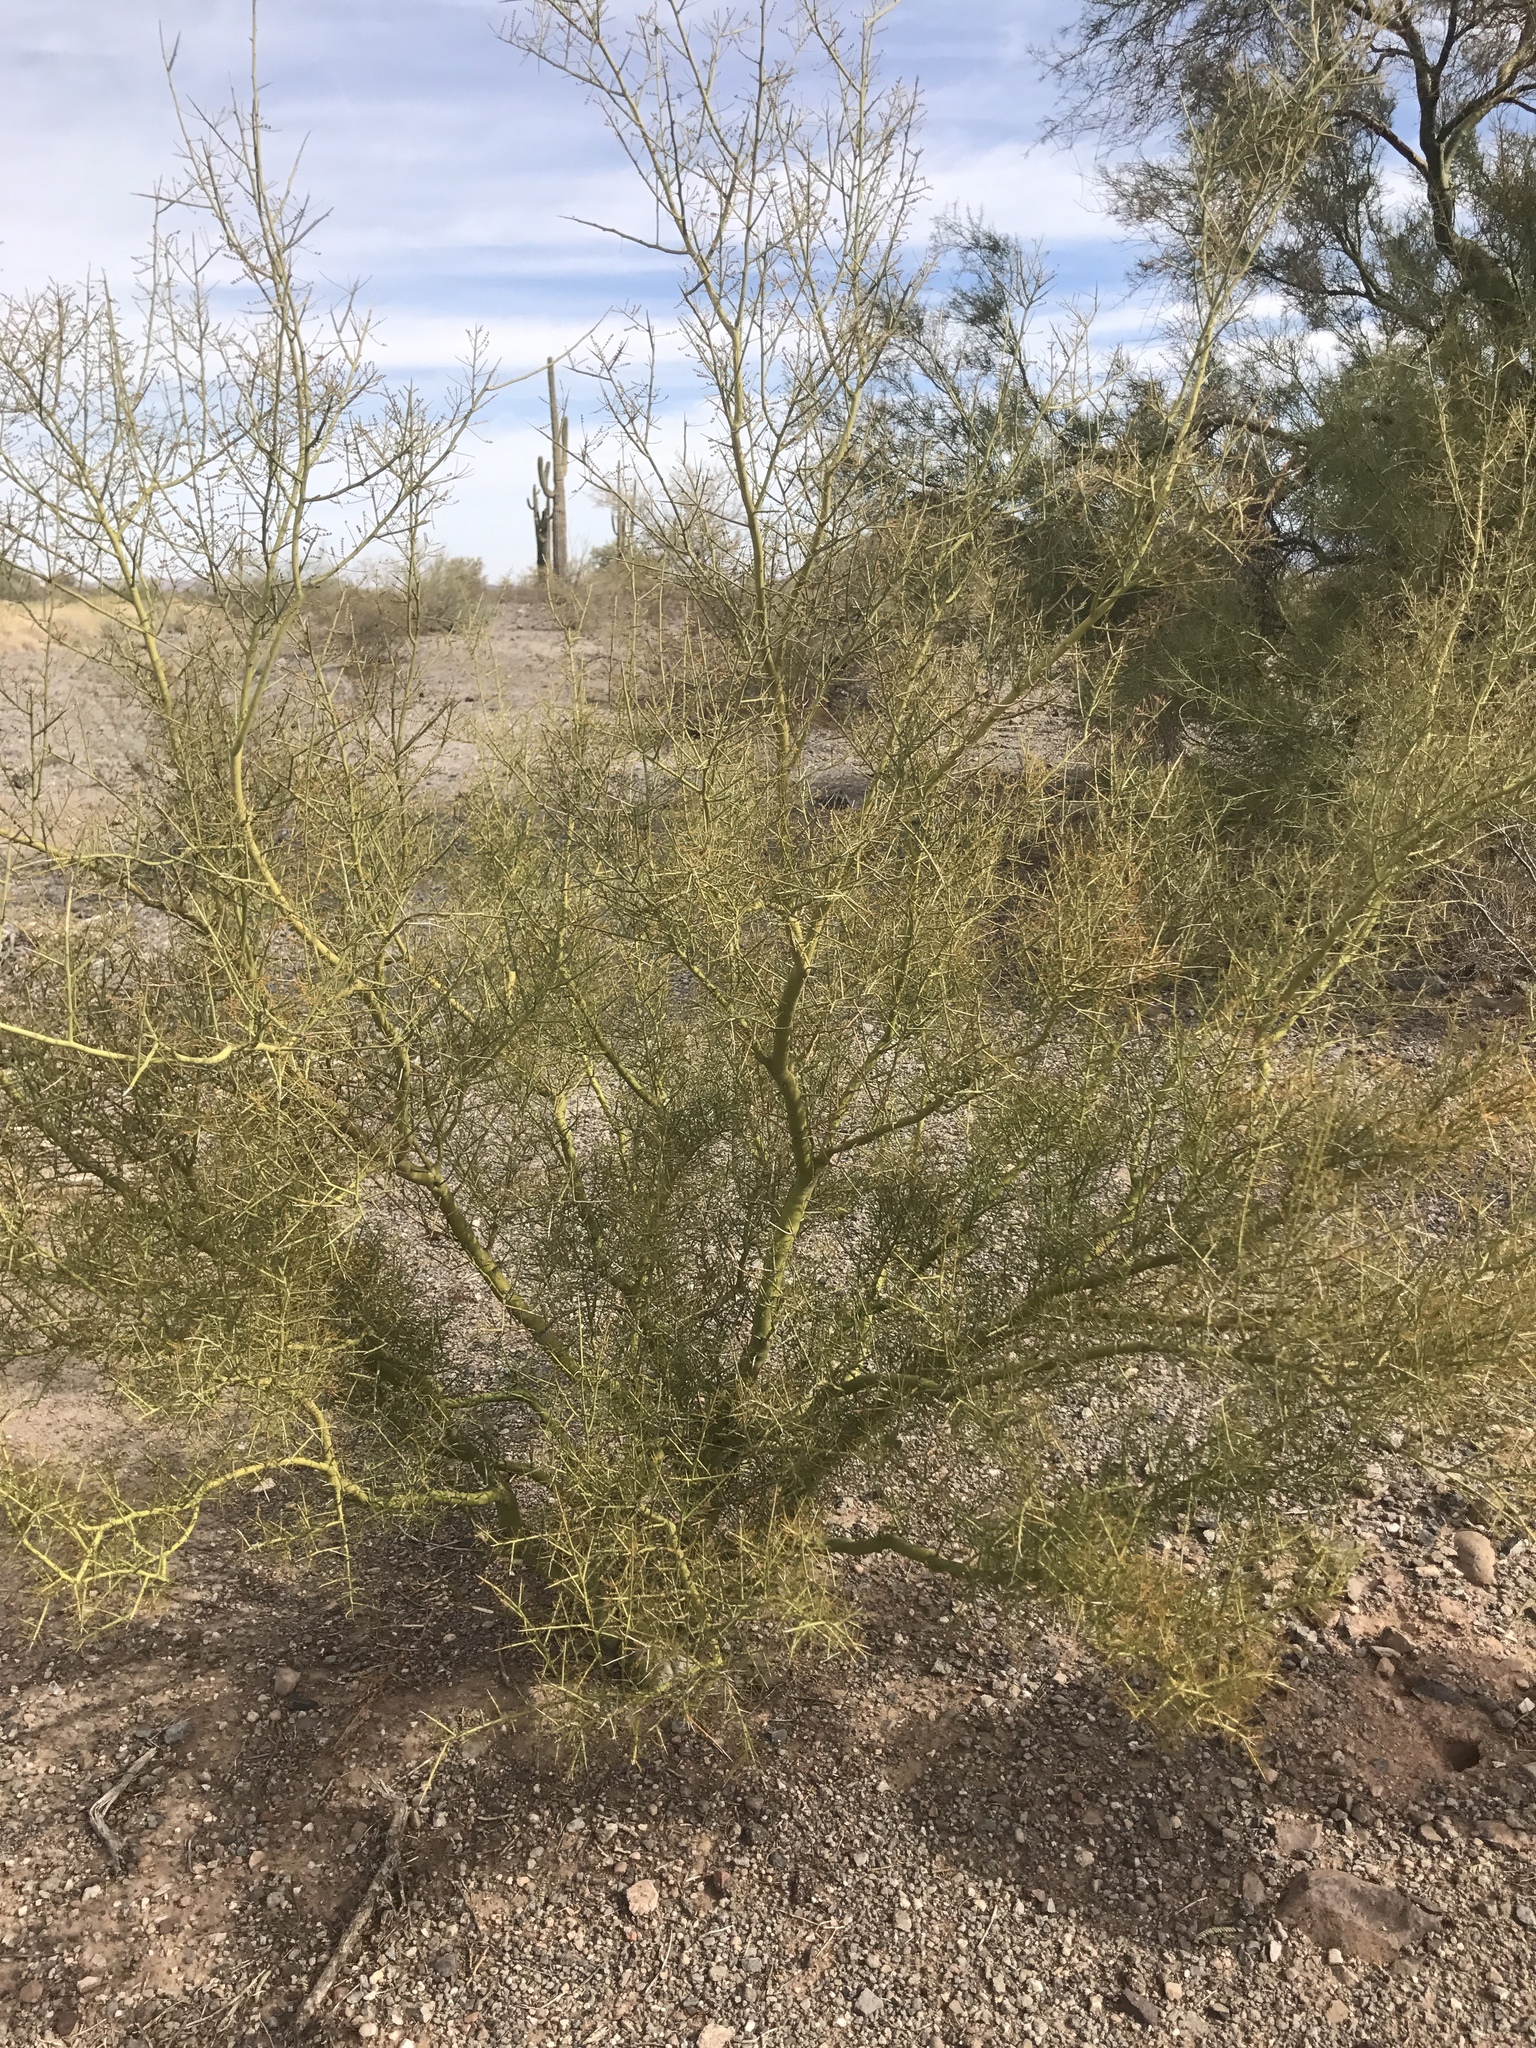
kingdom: Plantae
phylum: Tracheophyta
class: Magnoliopsida
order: Fabales
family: Fabaceae
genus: Parkinsonia
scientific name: Parkinsonia microphylla
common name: Yellow paloverde
